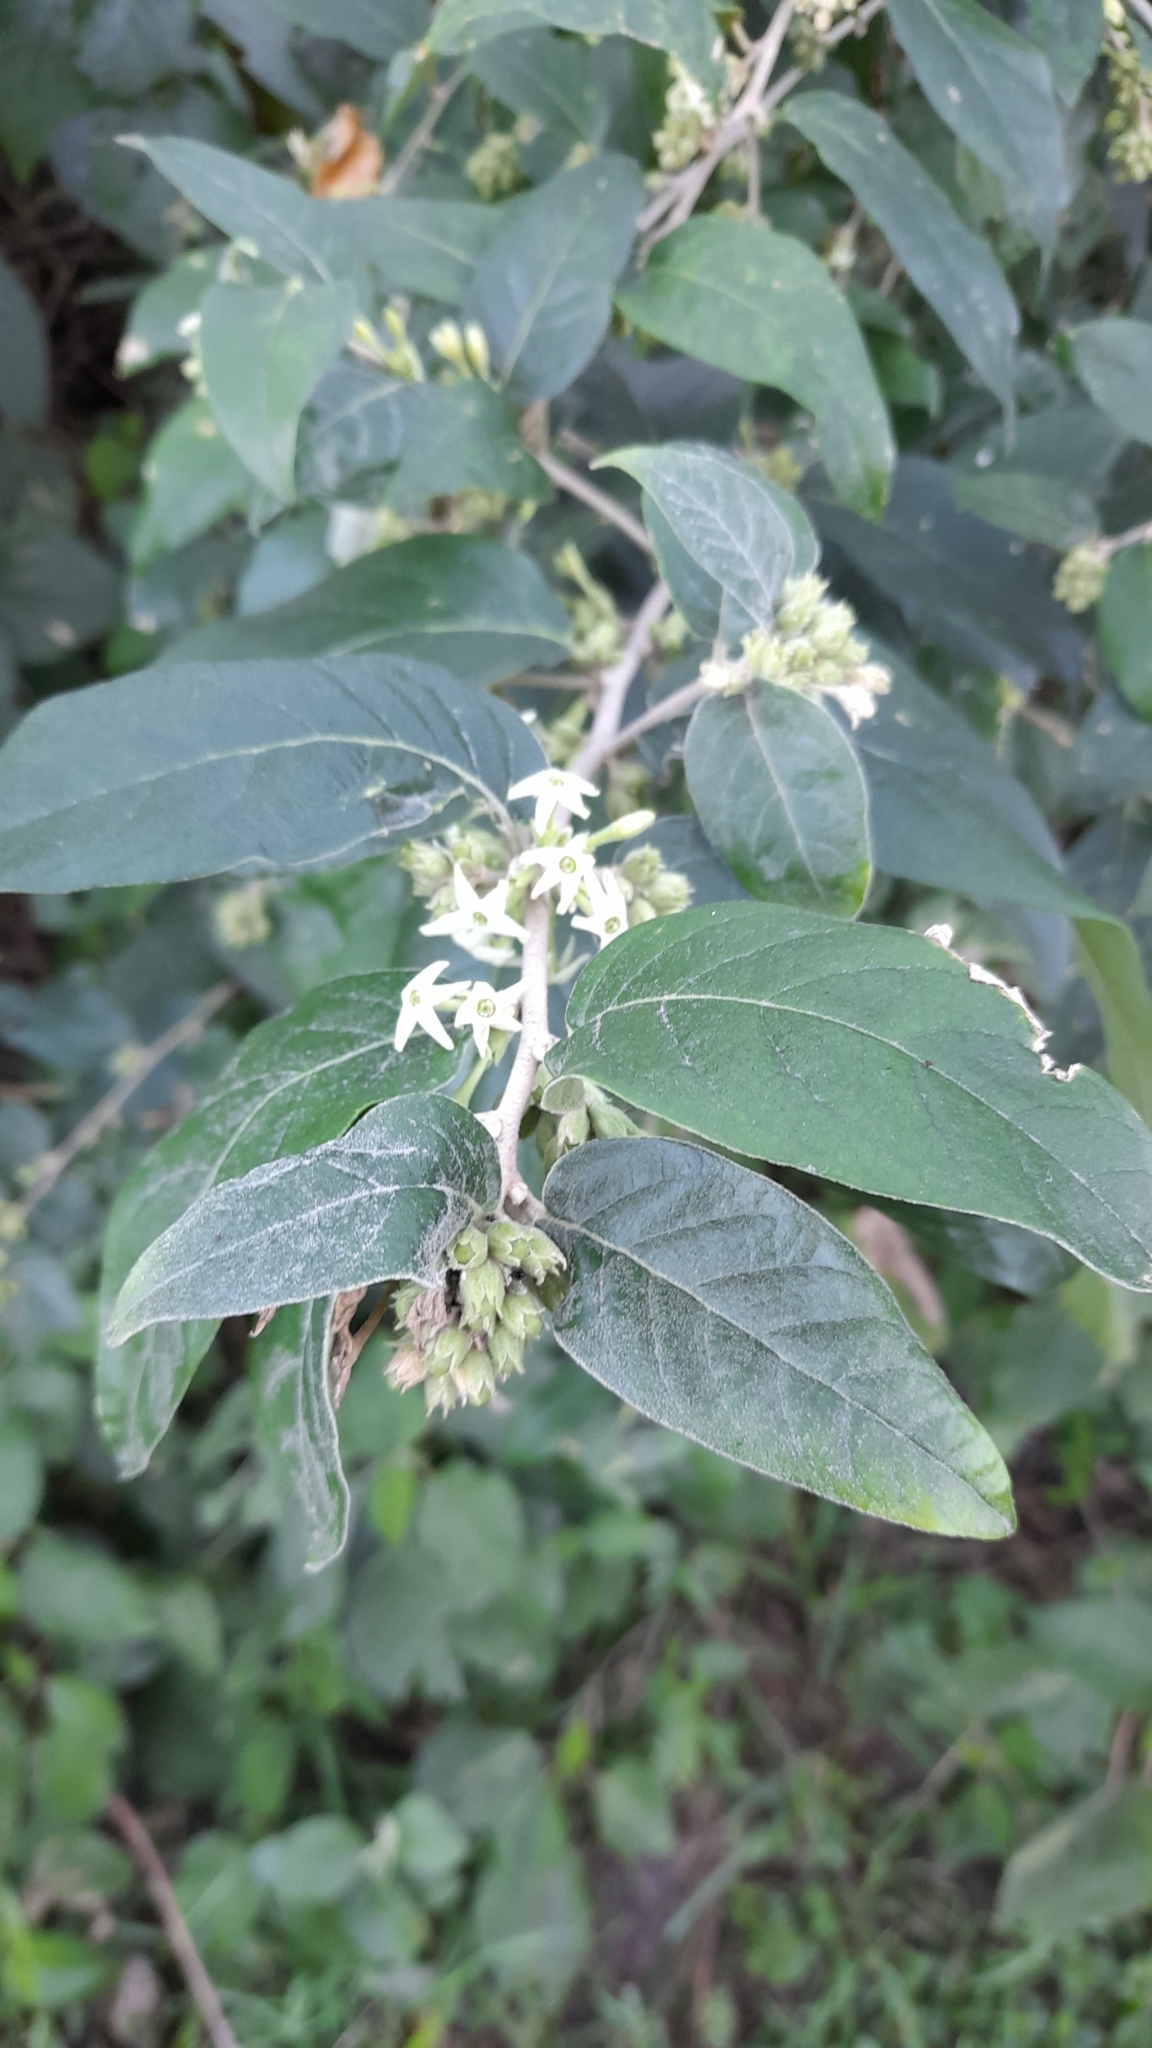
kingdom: Plantae
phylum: Tracheophyta
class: Magnoliopsida
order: Solanales
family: Solanaceae
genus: Cestrum
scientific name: Cestrum strigillatum
